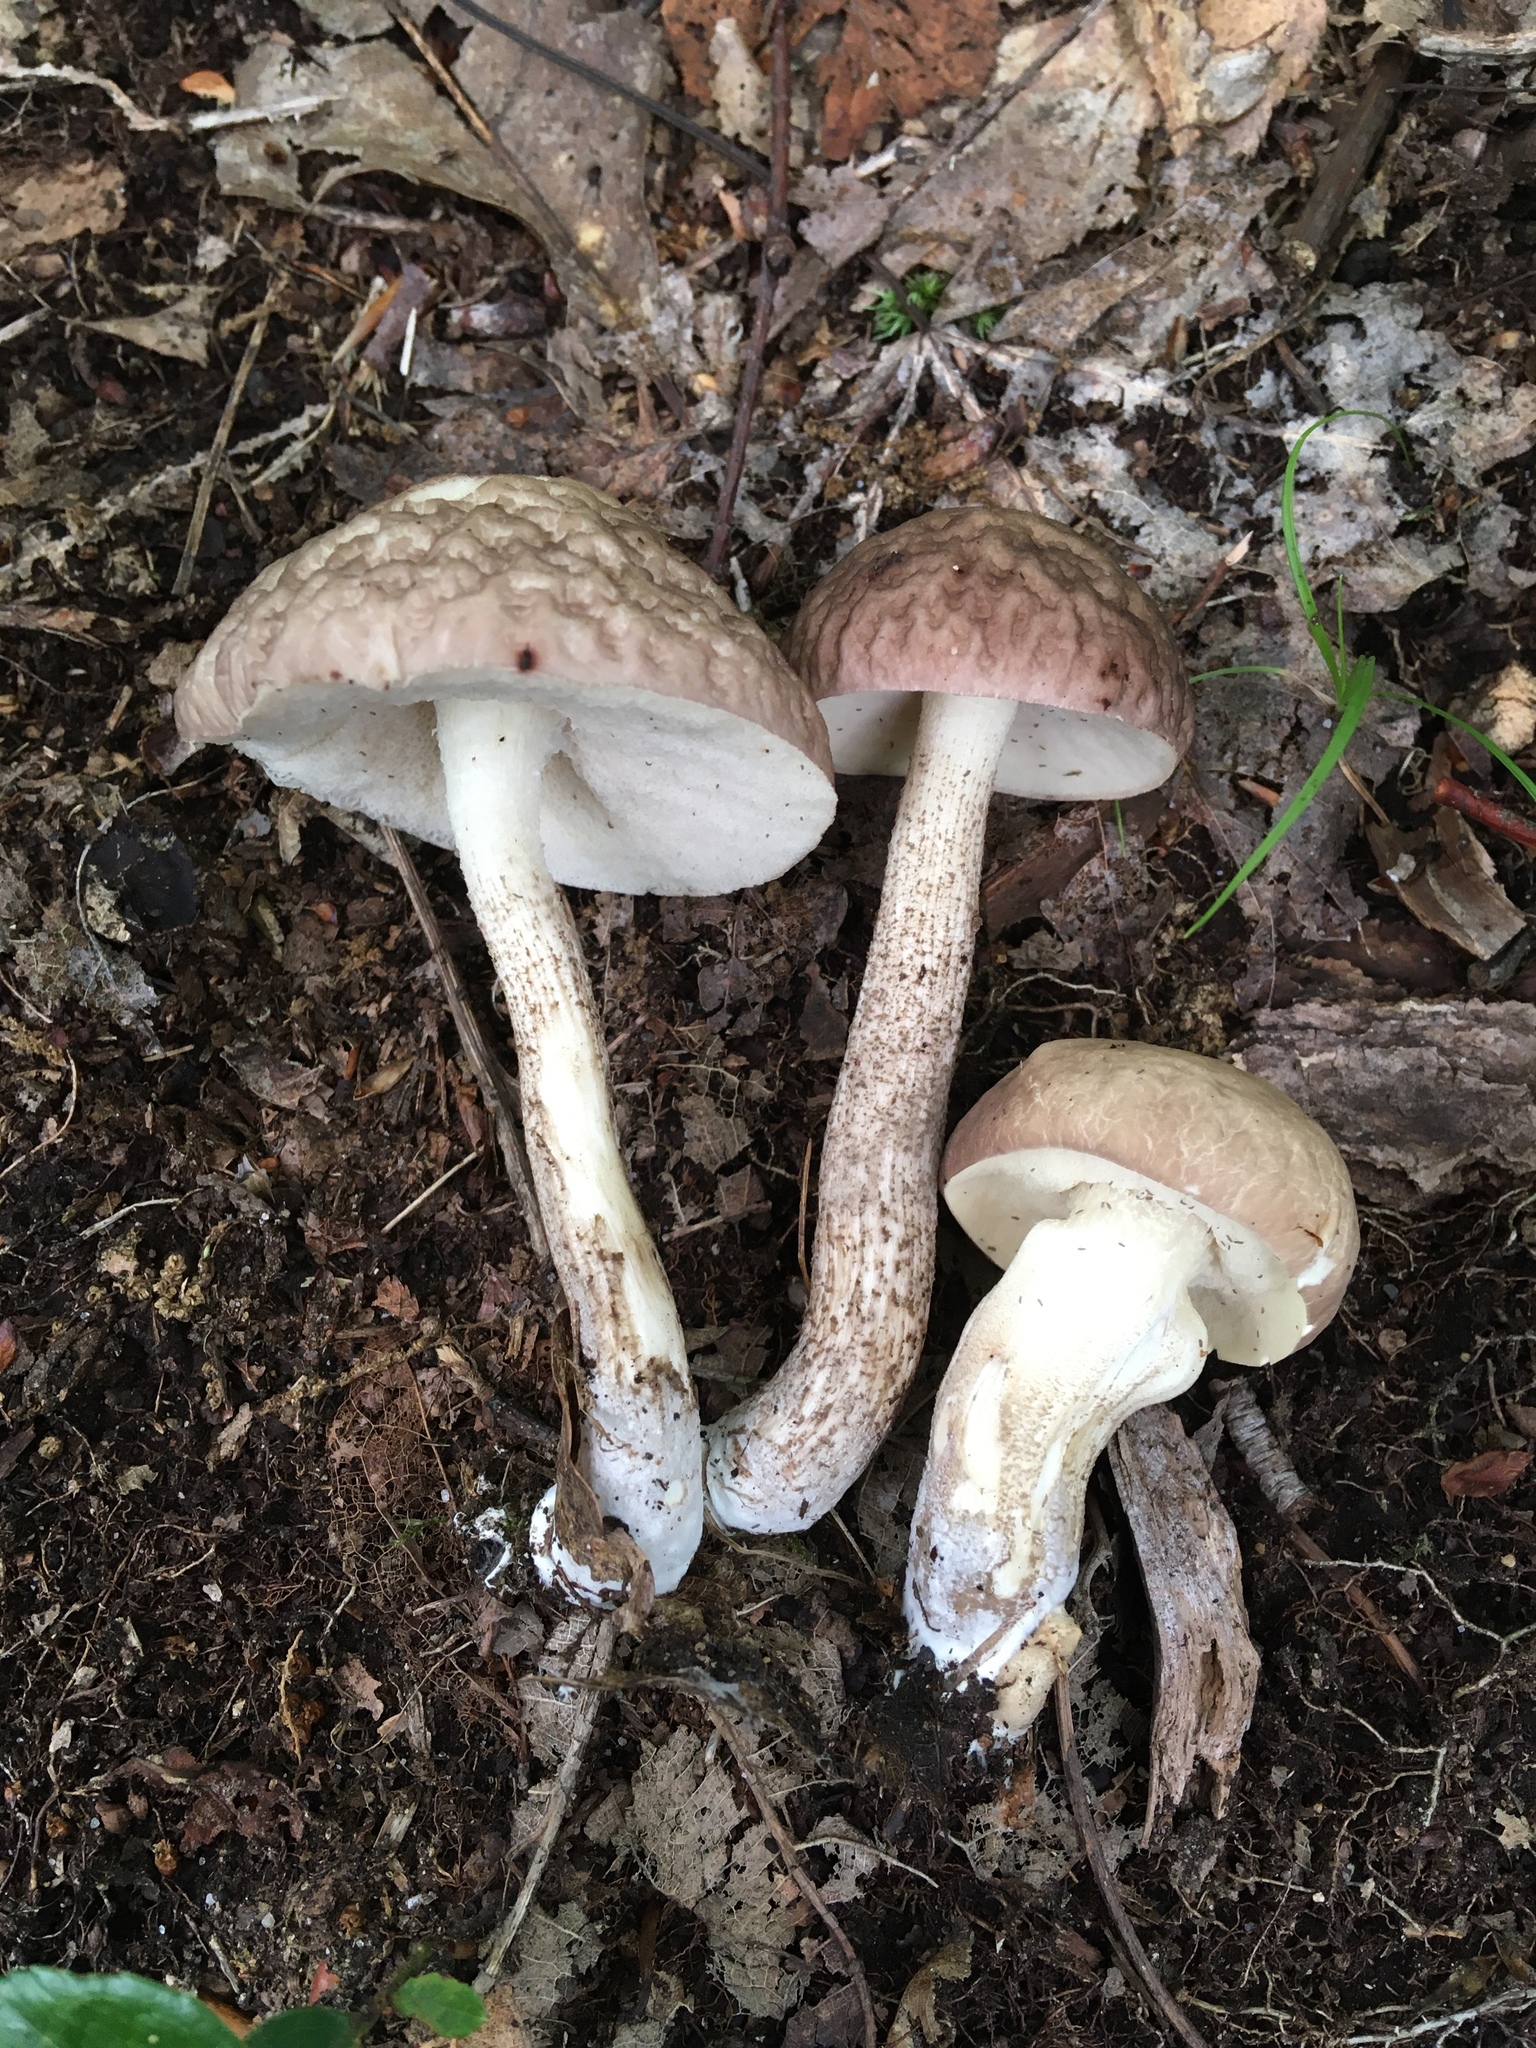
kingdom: Fungi
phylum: Basidiomycota
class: Agaricomycetes
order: Boletales
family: Boletaceae
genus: Leccinellum
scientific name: Leccinellum albellum
